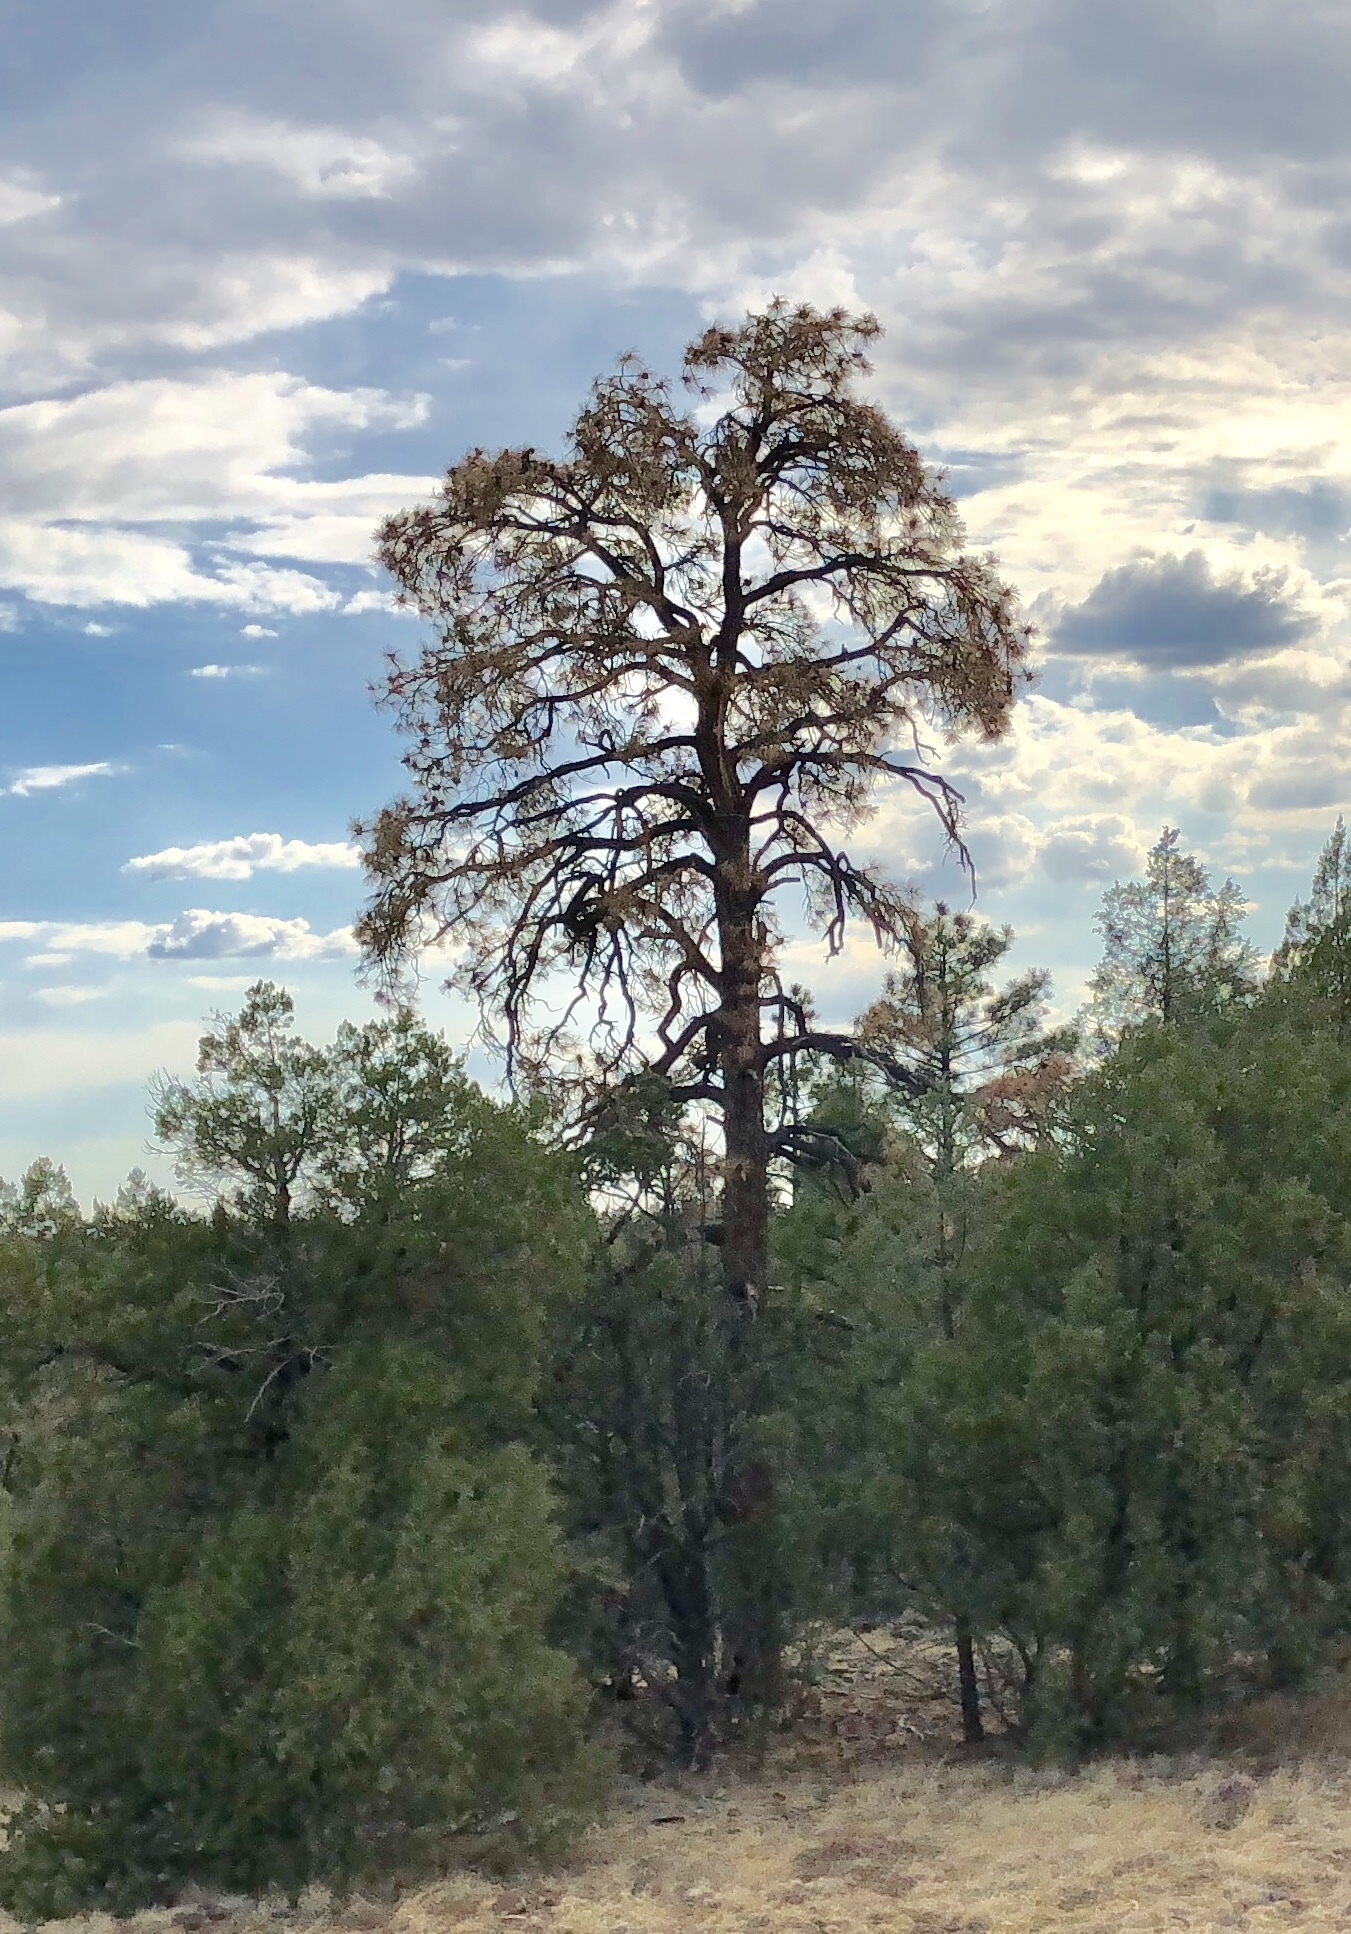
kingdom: Plantae
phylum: Tracheophyta
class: Pinopsida
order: Pinales
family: Pinaceae
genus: Pinus
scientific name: Pinus ponderosa
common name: Western yellow-pine
